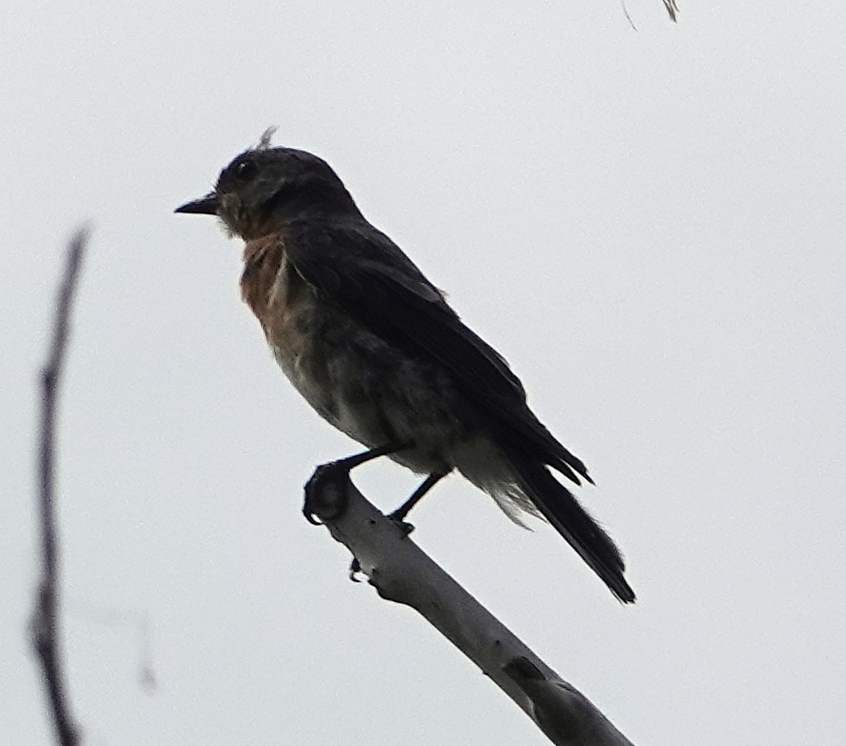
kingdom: Animalia
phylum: Chordata
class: Aves
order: Passeriformes
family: Turdidae
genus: Sialia
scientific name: Sialia sialis
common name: Eastern bluebird
